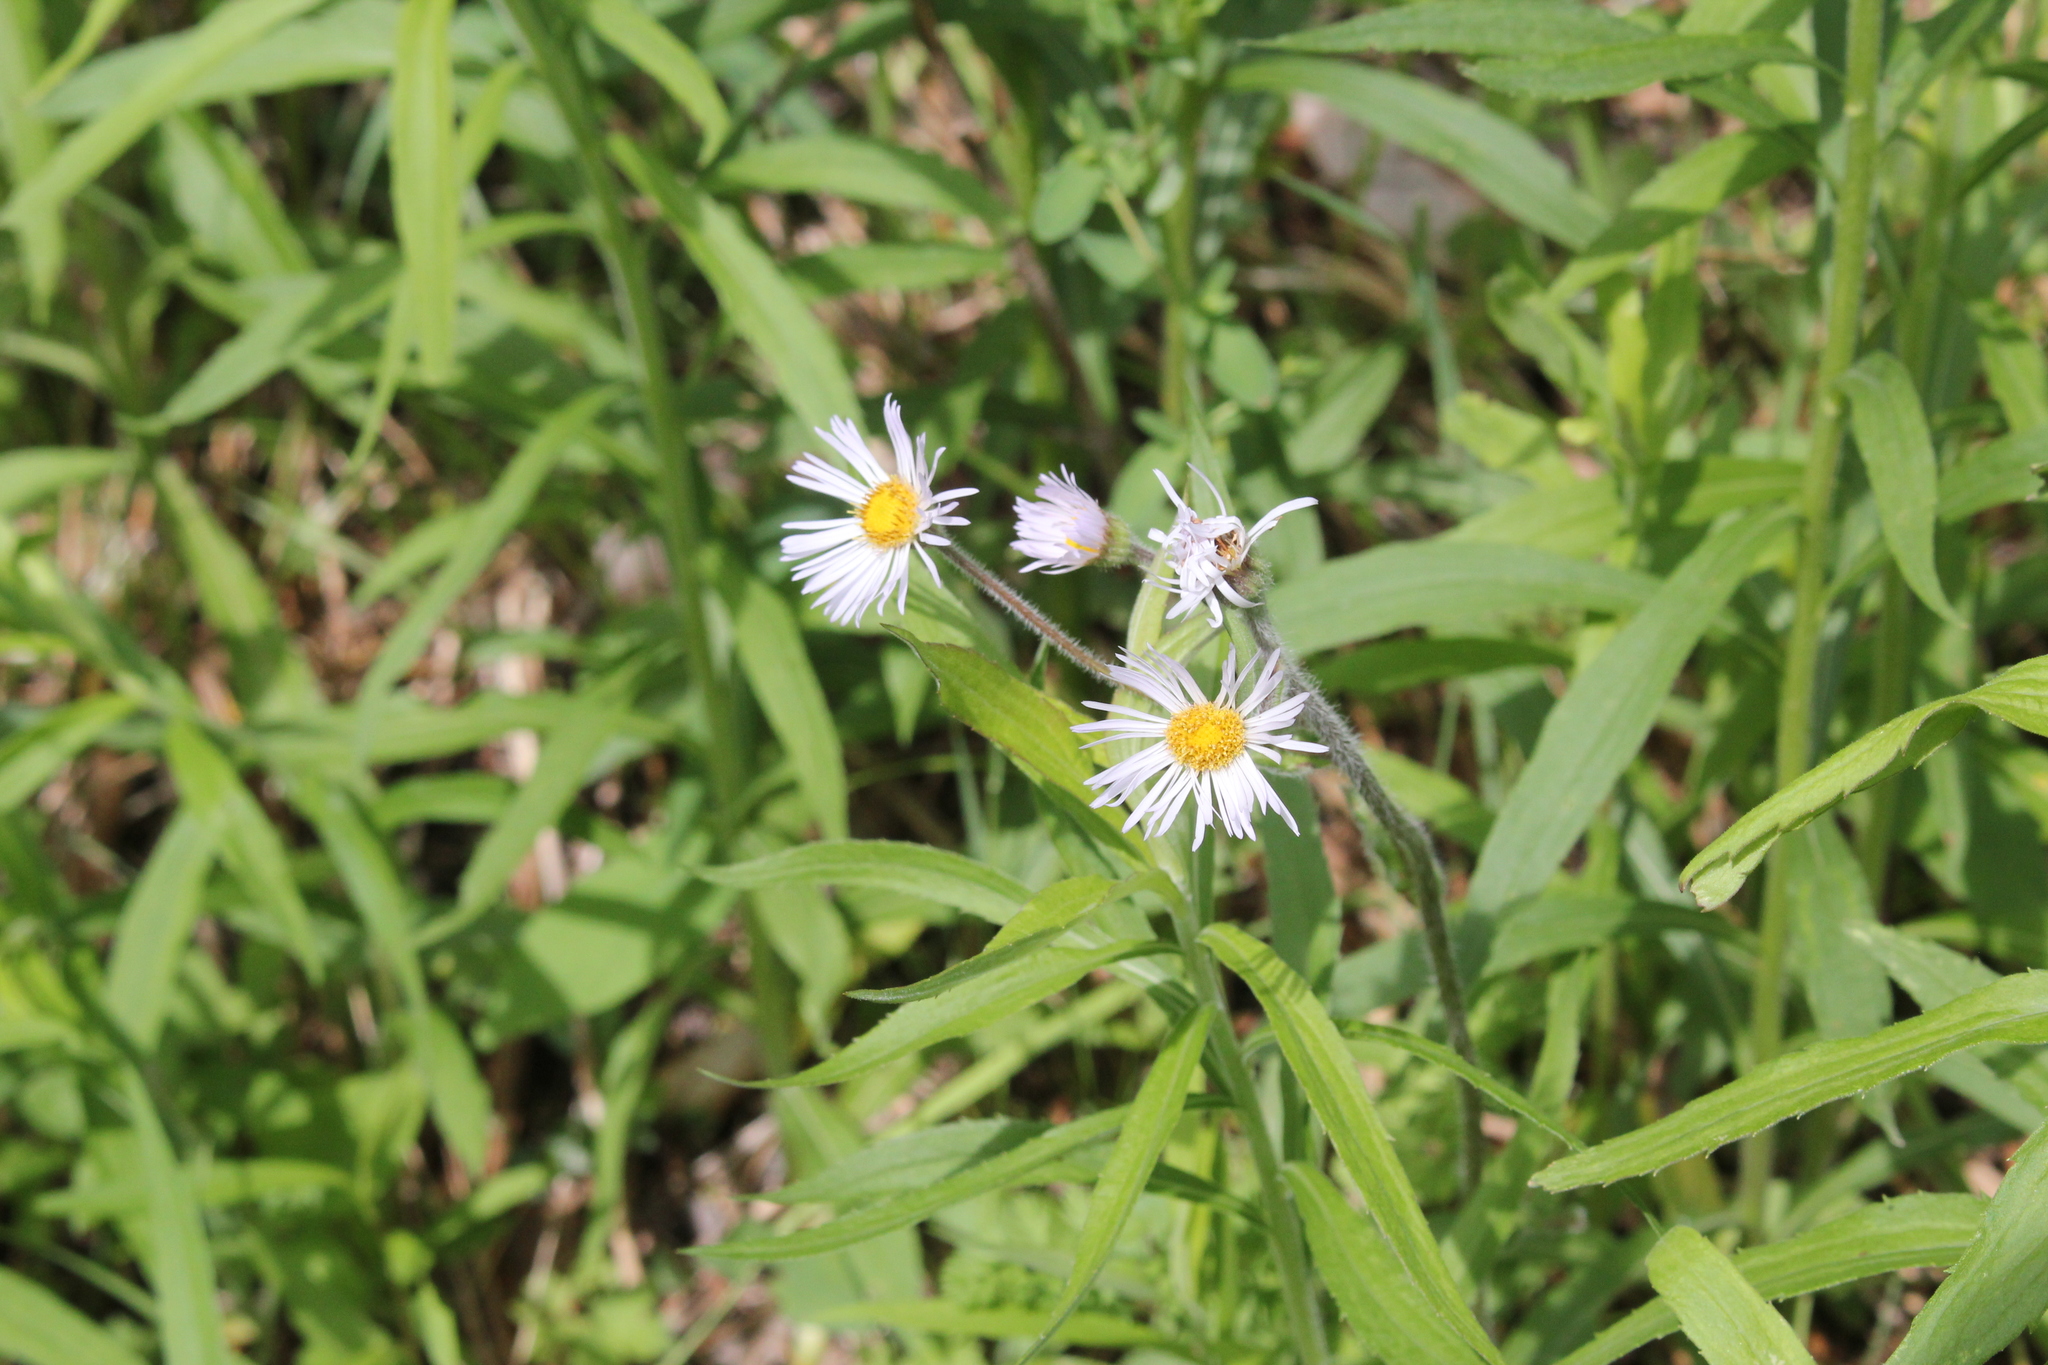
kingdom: Plantae
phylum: Tracheophyta
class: Magnoliopsida
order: Asterales
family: Asteraceae
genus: Erigeron
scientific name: Erigeron pulchellus
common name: Hairy fleabane
